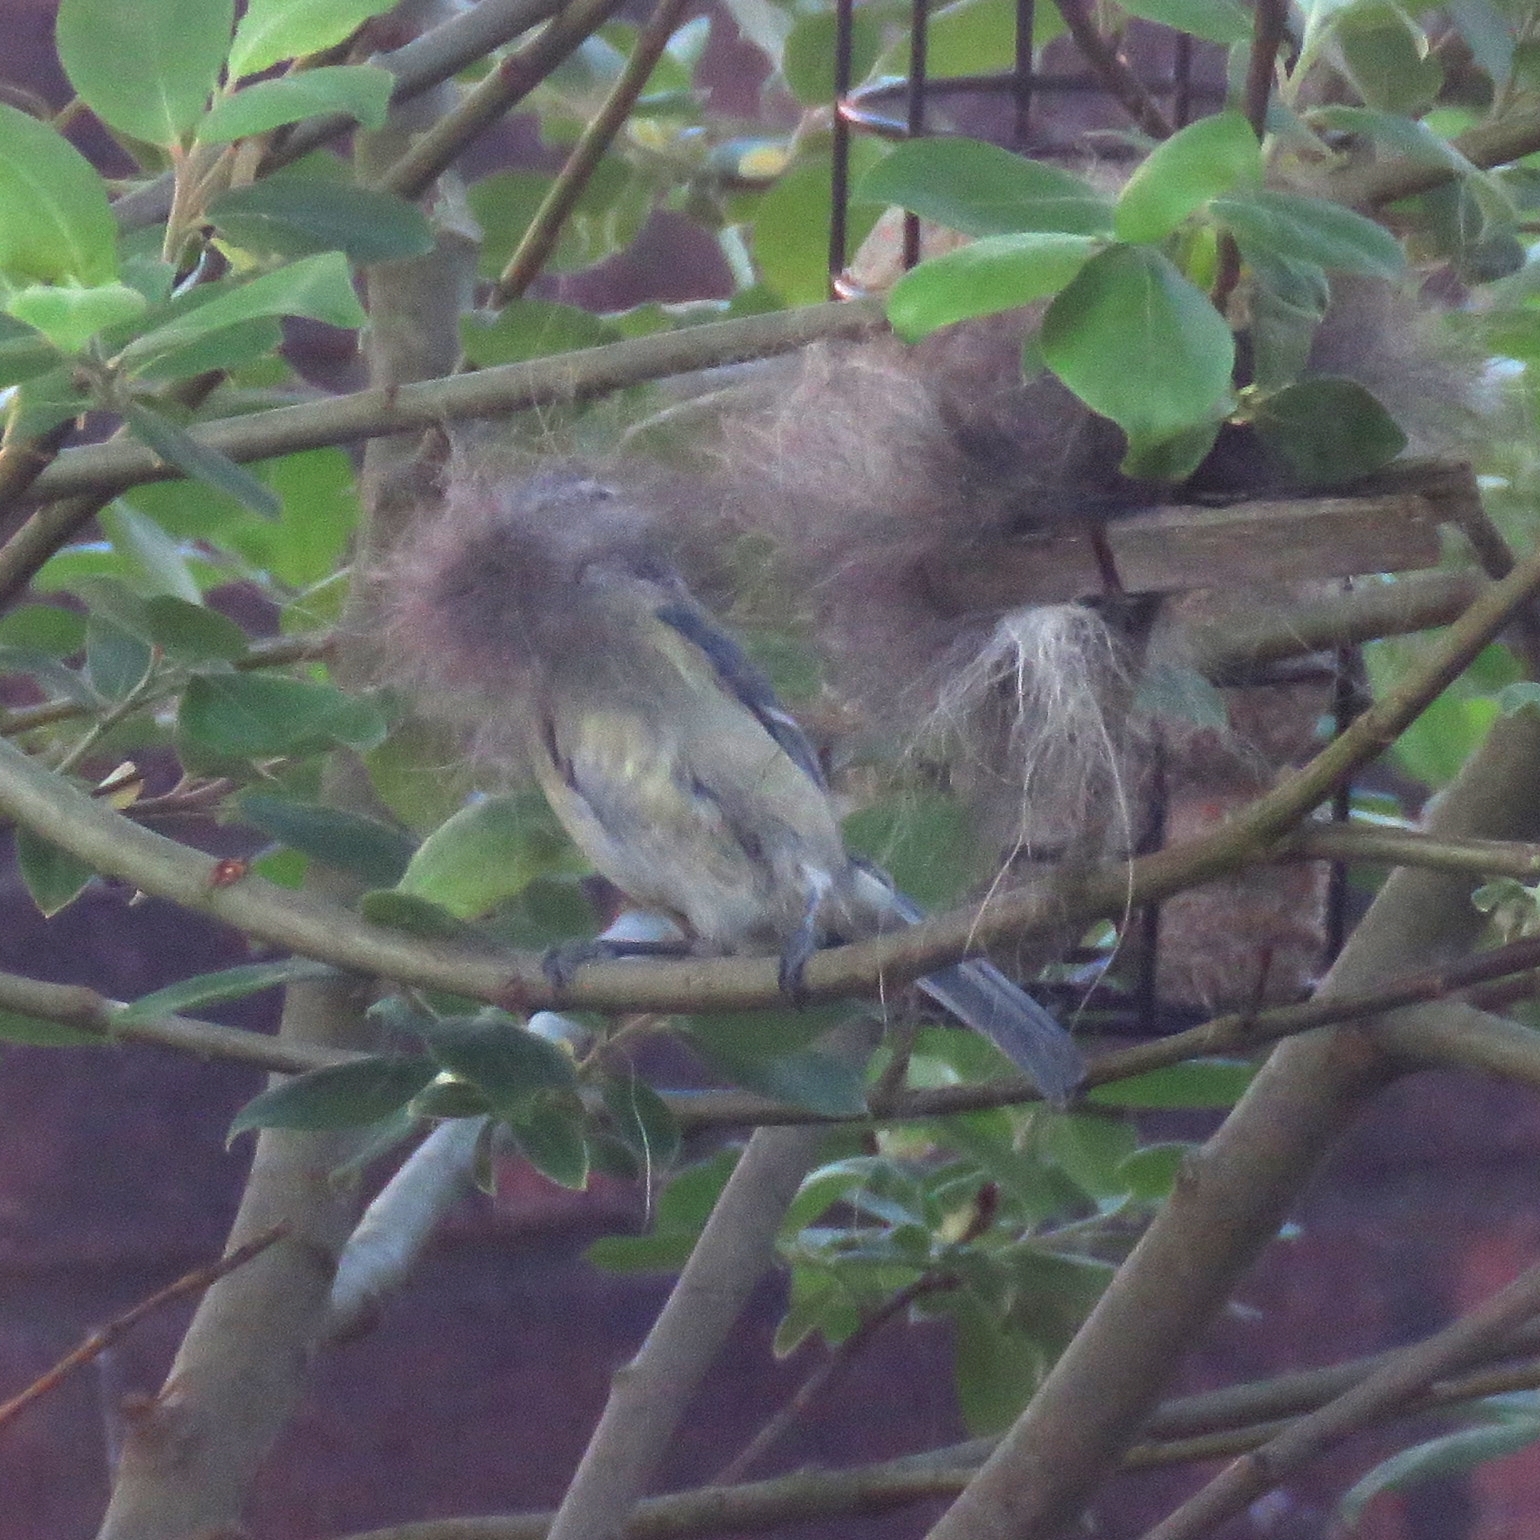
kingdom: Animalia
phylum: Chordata
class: Aves
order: Passeriformes
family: Paridae
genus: Cyanistes
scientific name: Cyanistes caeruleus
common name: Eurasian blue tit
